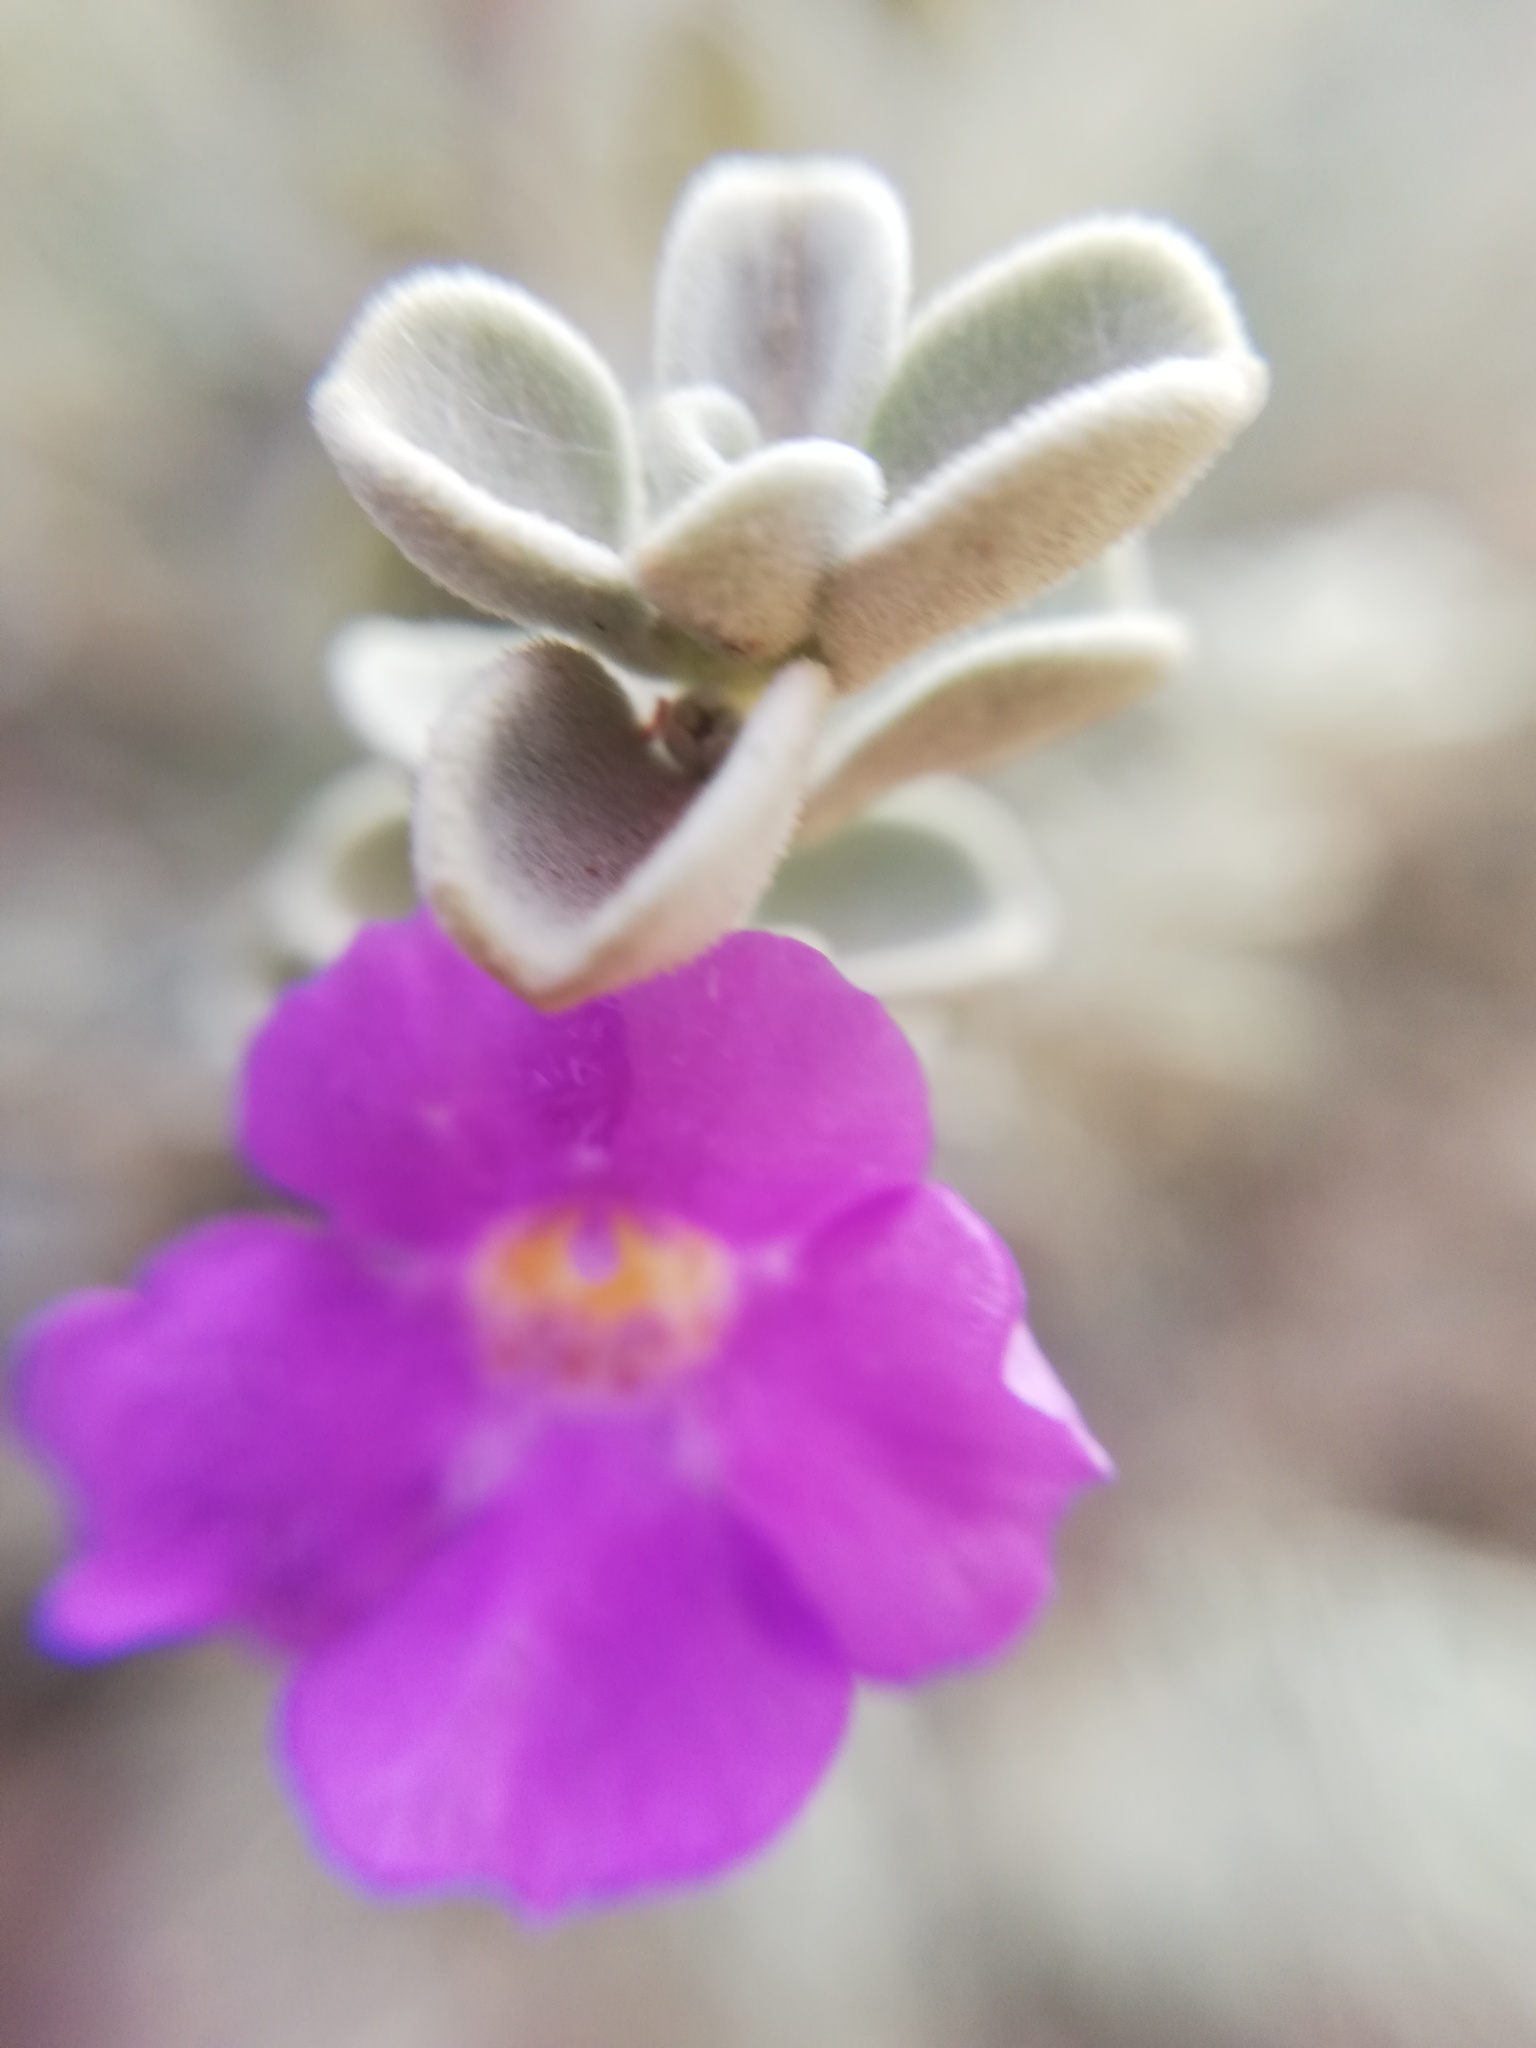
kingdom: Plantae
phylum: Tracheophyta
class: Magnoliopsida
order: Lamiales
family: Scrophulariaceae
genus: Leucophyllum
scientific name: Leucophyllum frutescens
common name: Texas silverleaf
